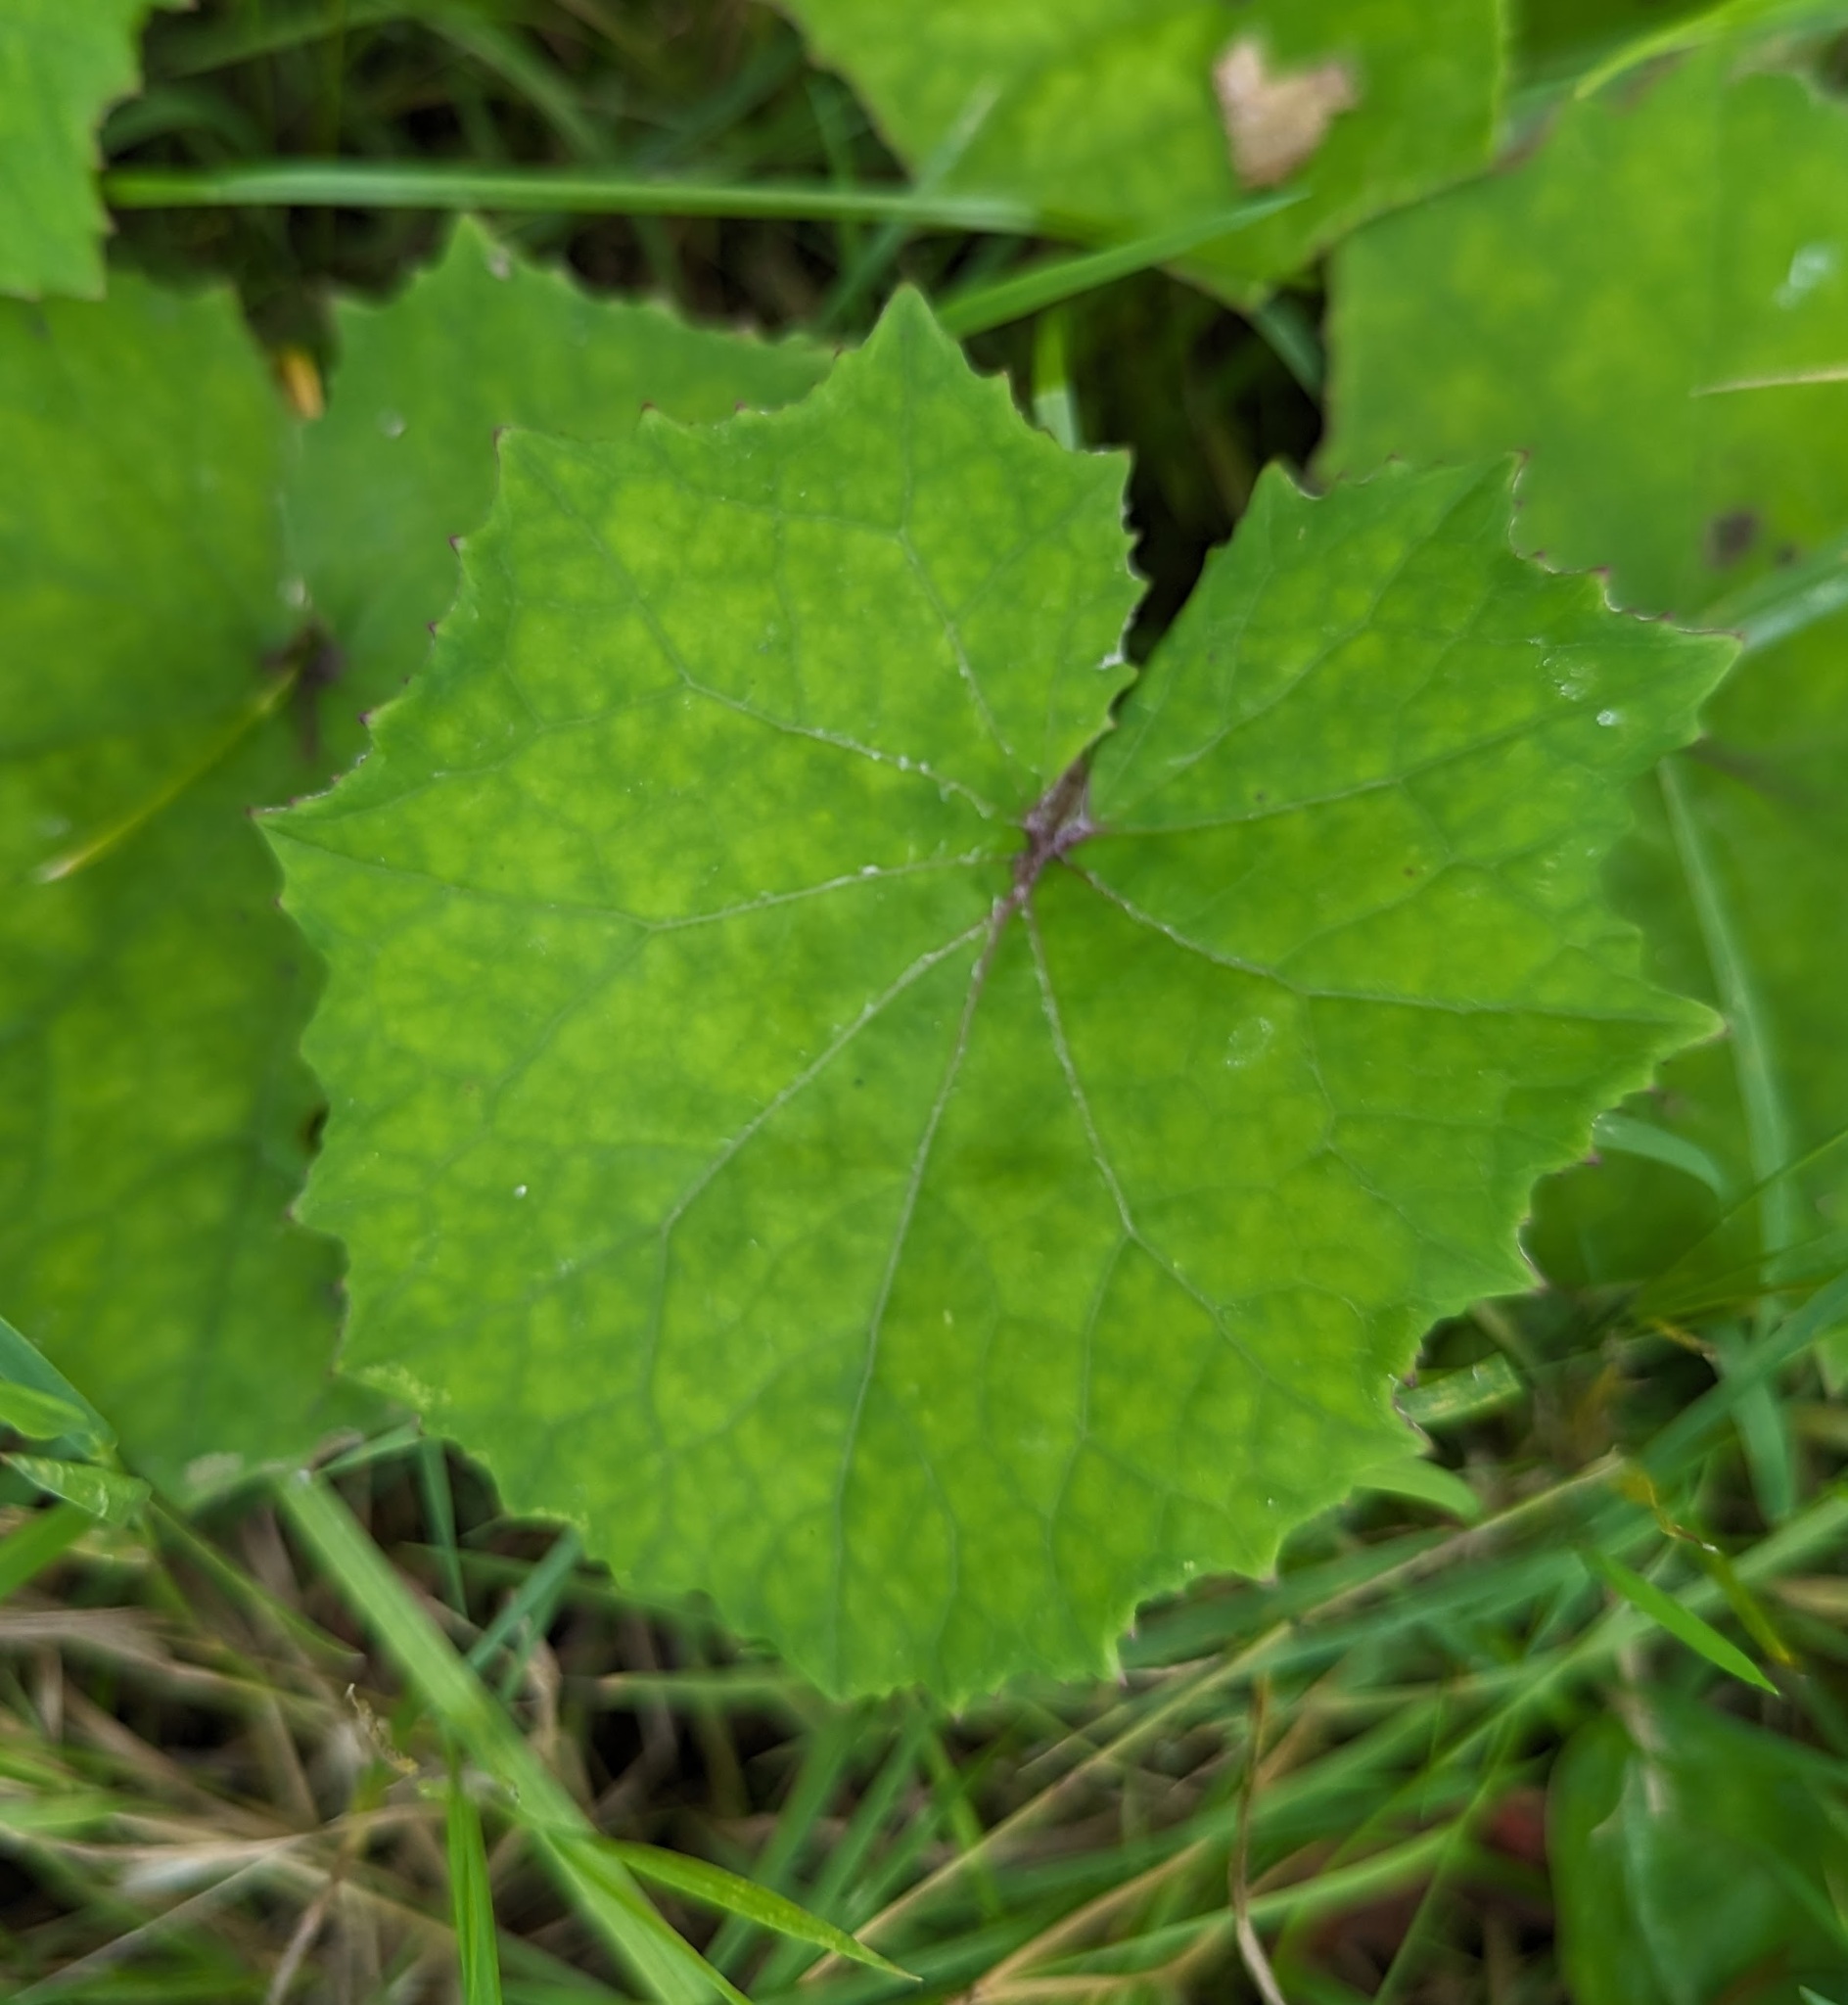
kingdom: Plantae
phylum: Tracheophyta
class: Magnoliopsida
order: Asterales
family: Asteraceae
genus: Tussilago
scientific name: Tussilago farfara
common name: Coltsfoot
